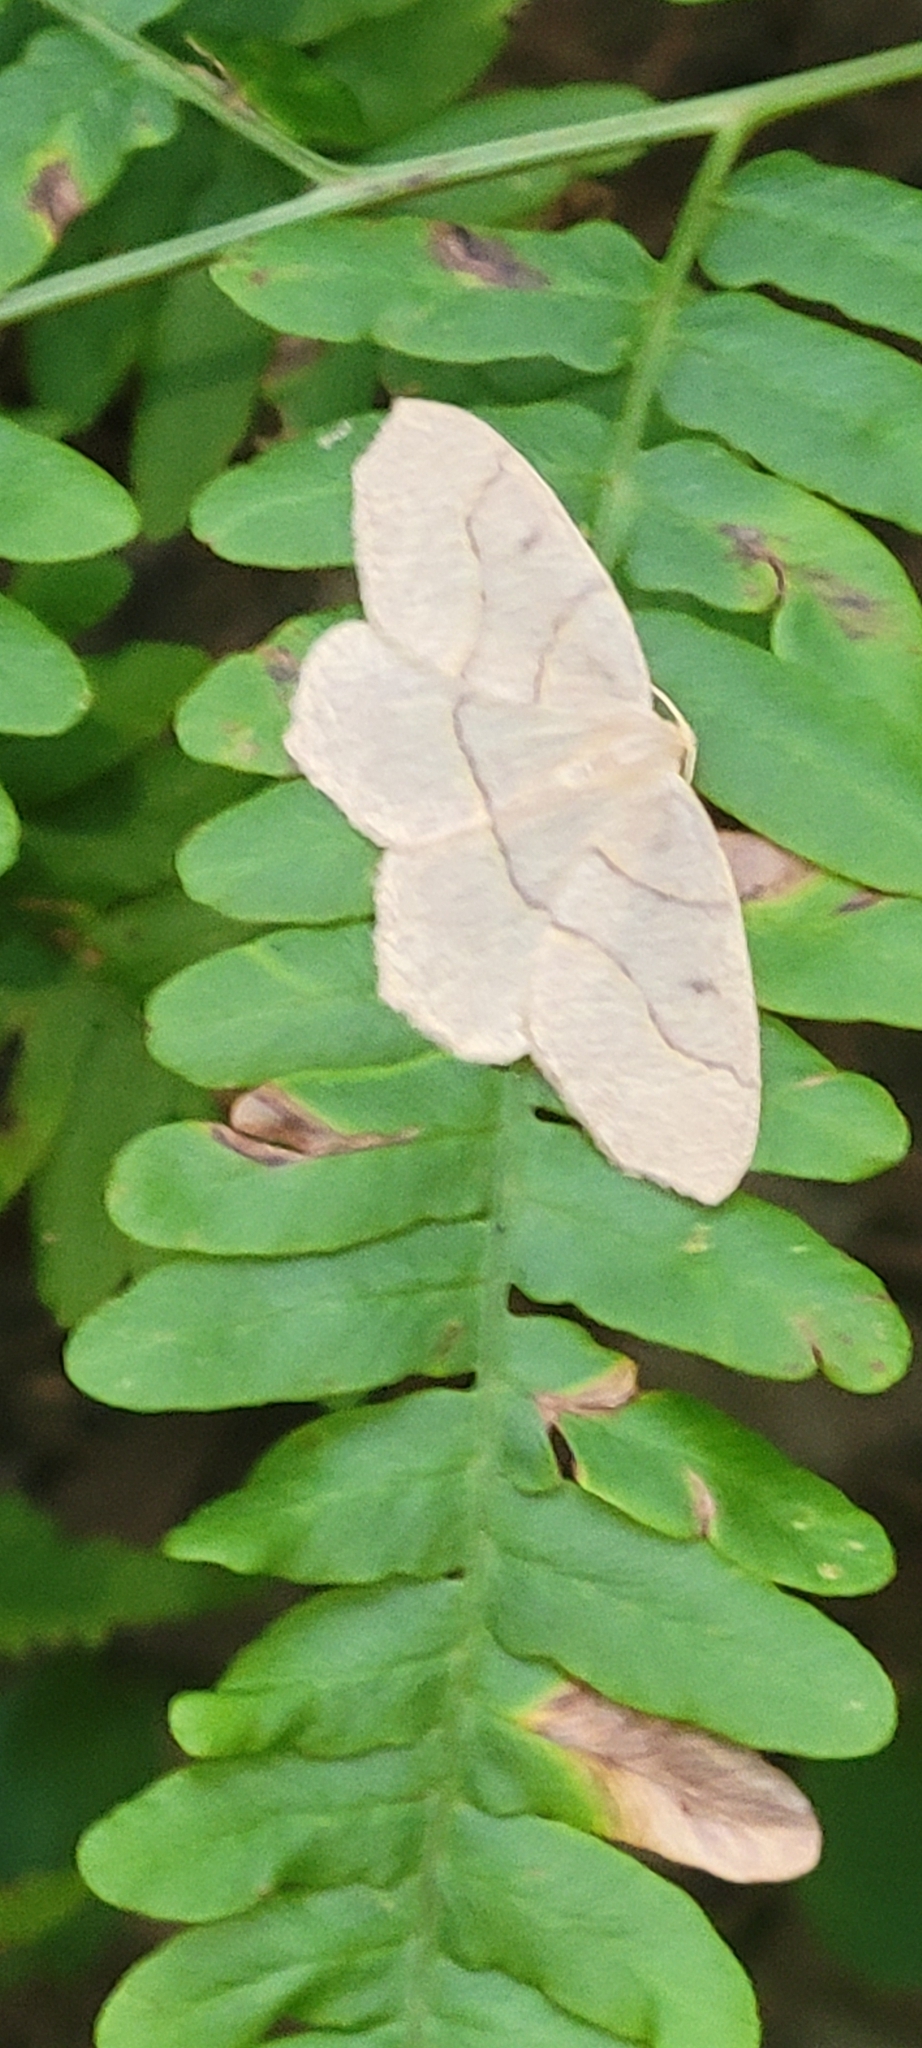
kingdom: Animalia
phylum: Arthropoda
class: Insecta
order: Lepidoptera
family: Geometridae
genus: Lambdina
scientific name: Lambdina fiscellaria
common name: Hemlock looper
